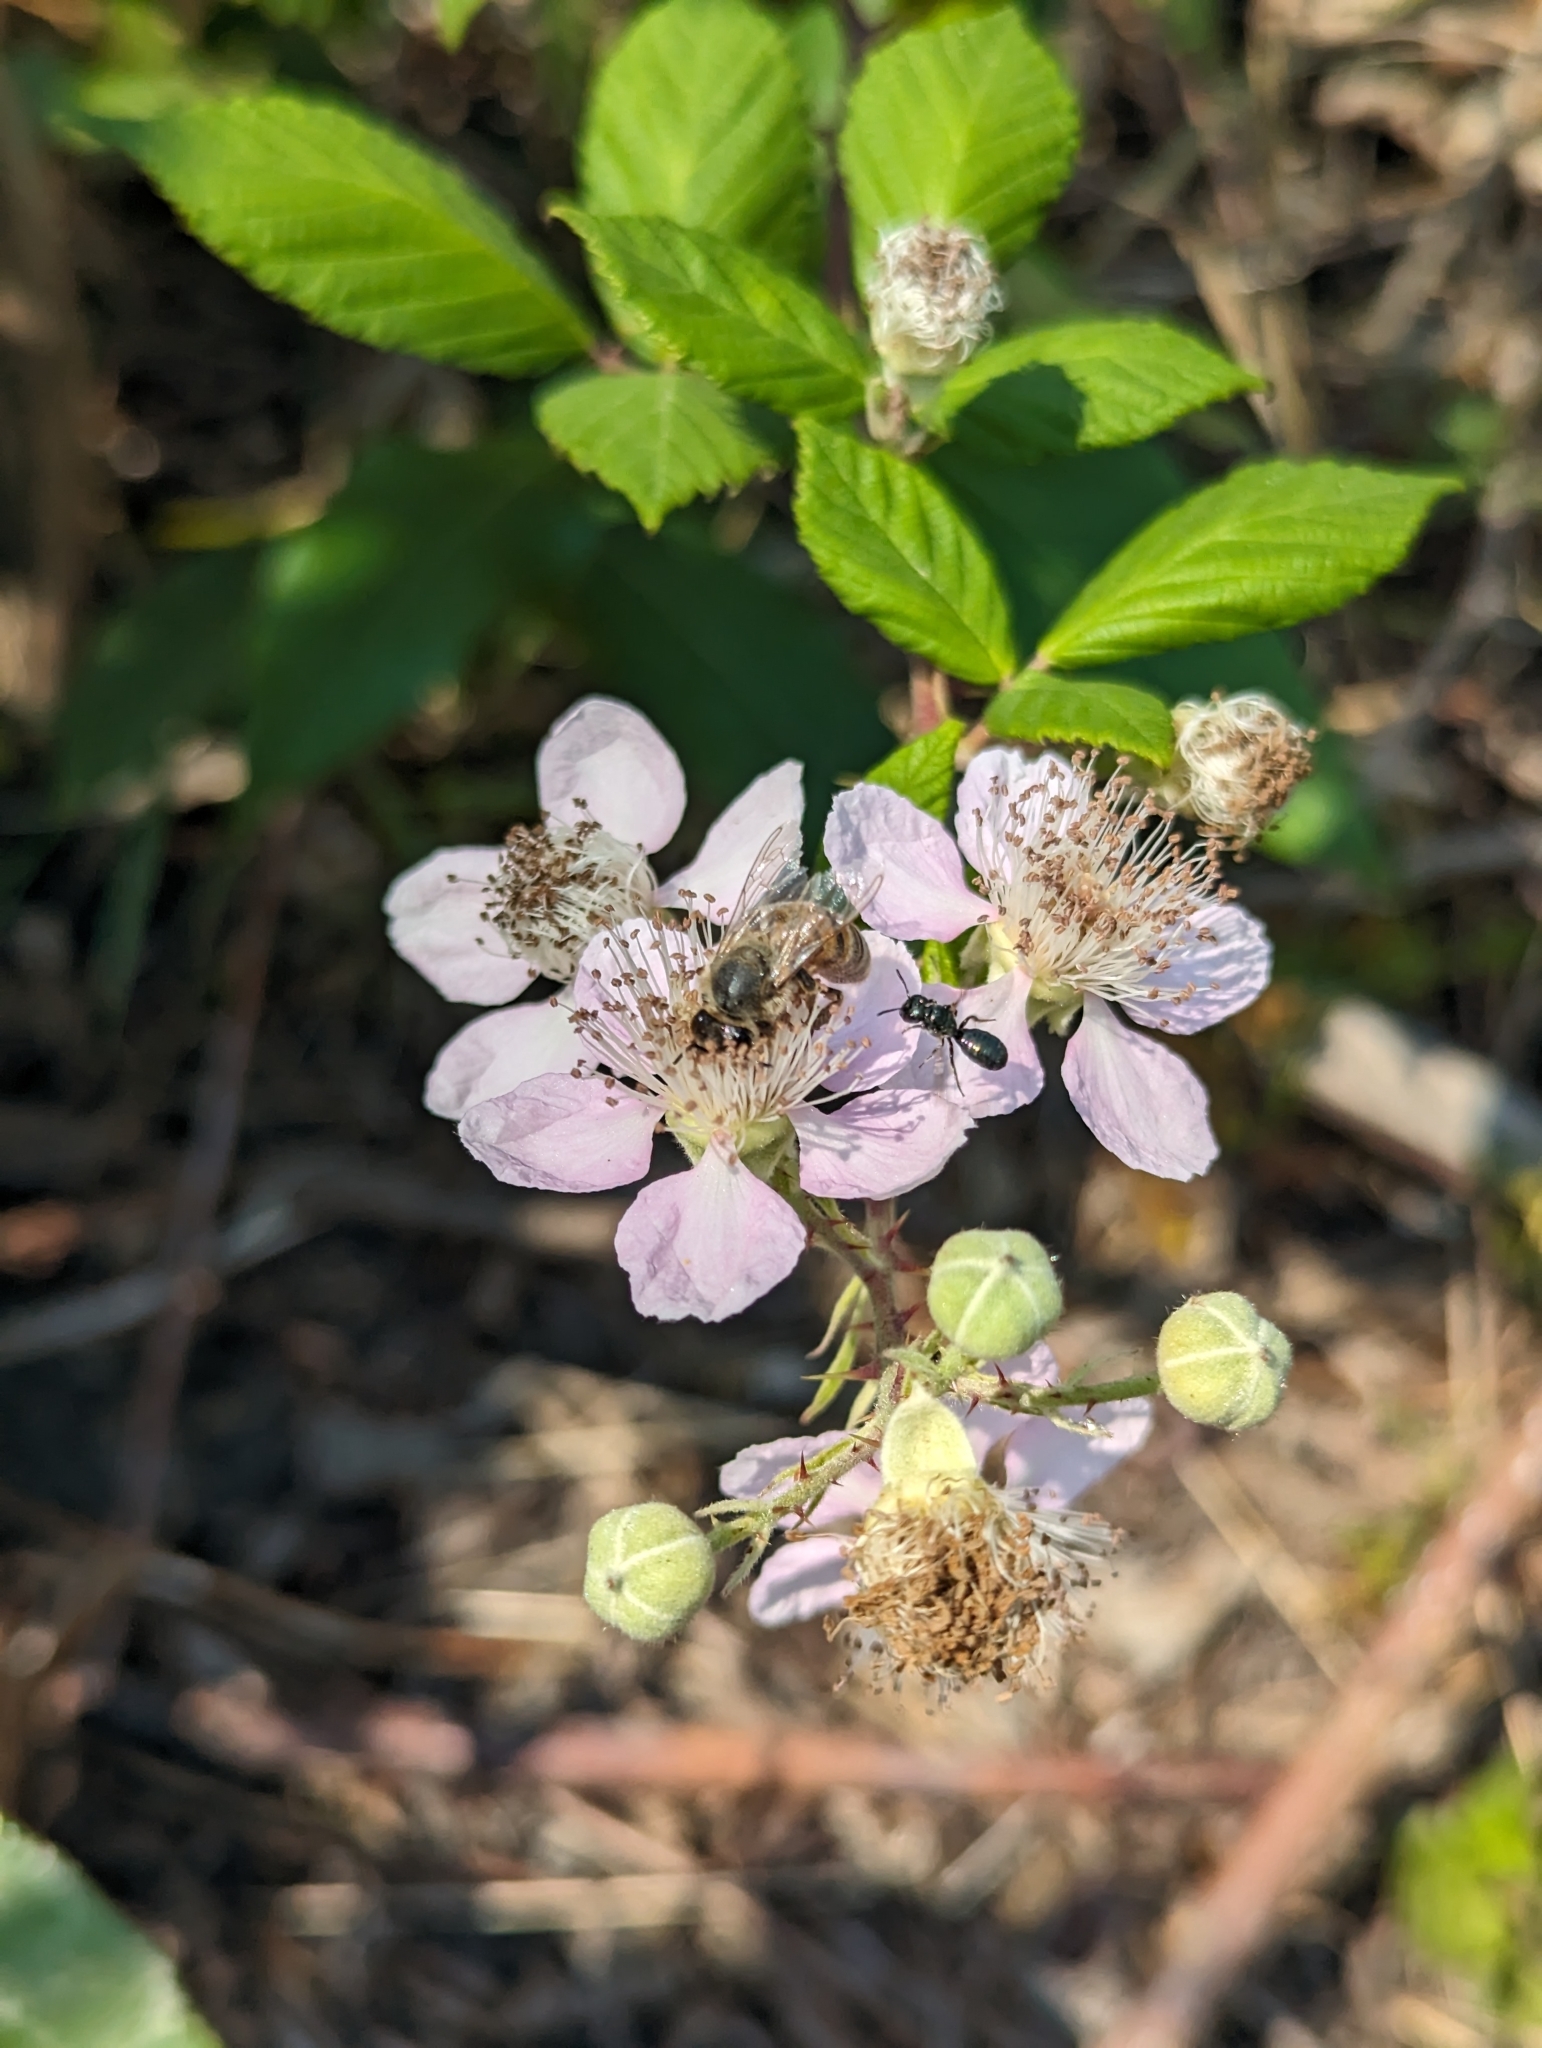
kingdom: Animalia
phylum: Arthropoda
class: Insecta
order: Hymenoptera
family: Apidae
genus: Apis
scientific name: Apis mellifera
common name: Honey bee
